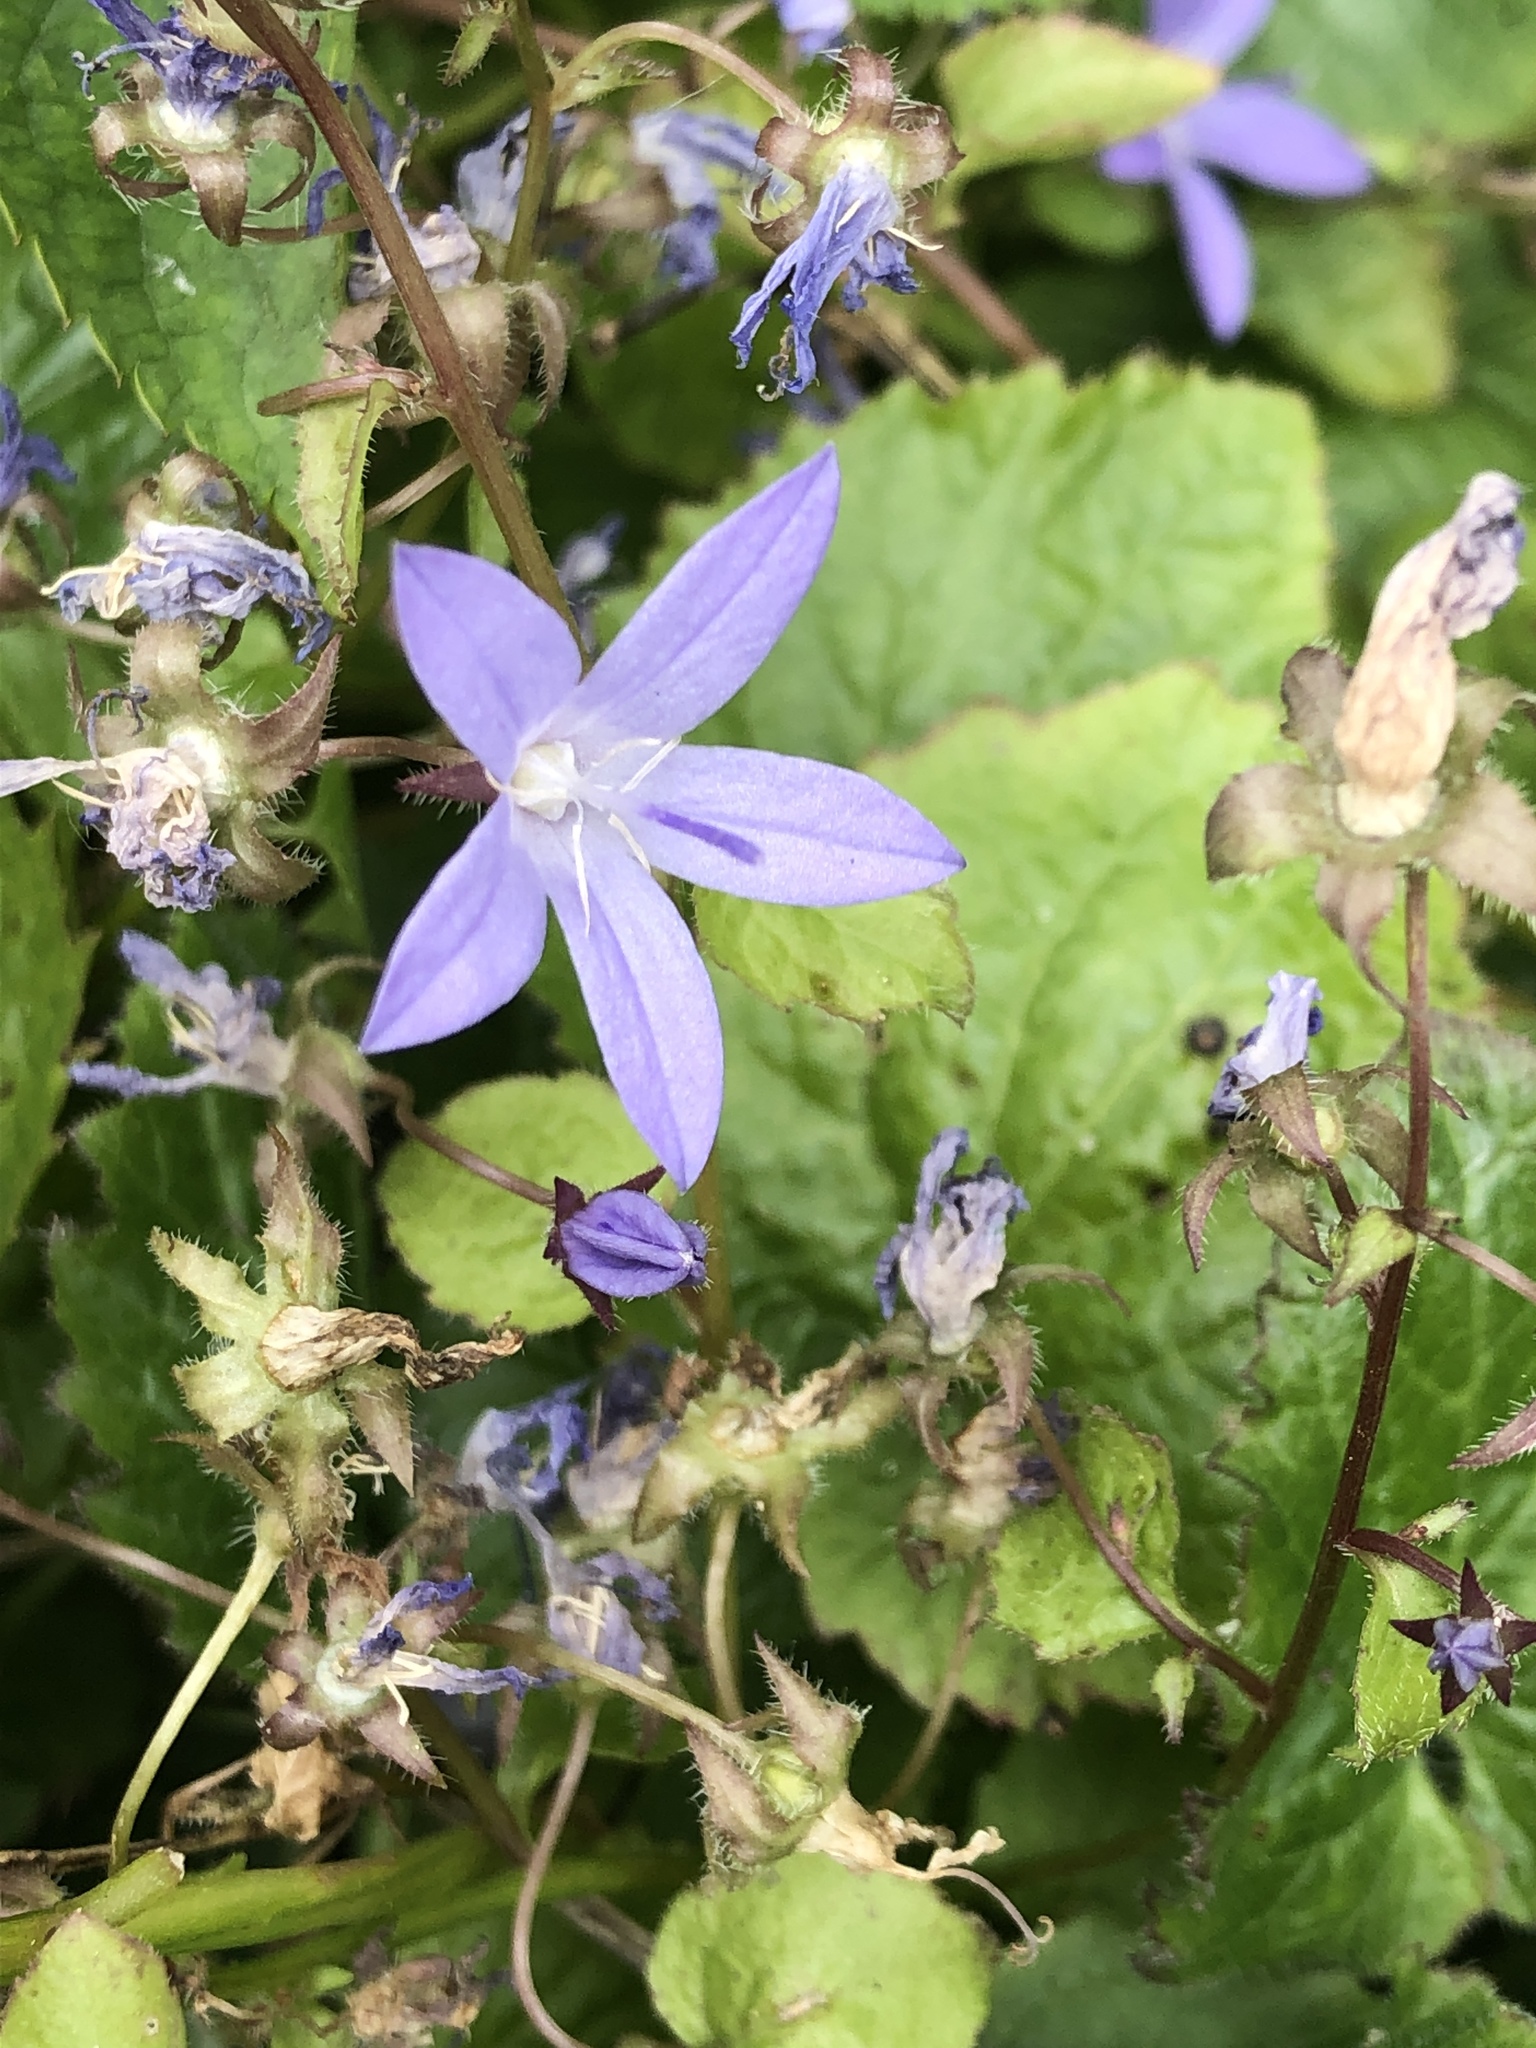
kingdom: Plantae
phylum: Tracheophyta
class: Magnoliopsida
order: Asterales
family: Campanulaceae
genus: Campanula
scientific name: Campanula poscharskyana
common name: Trailing bellflower
